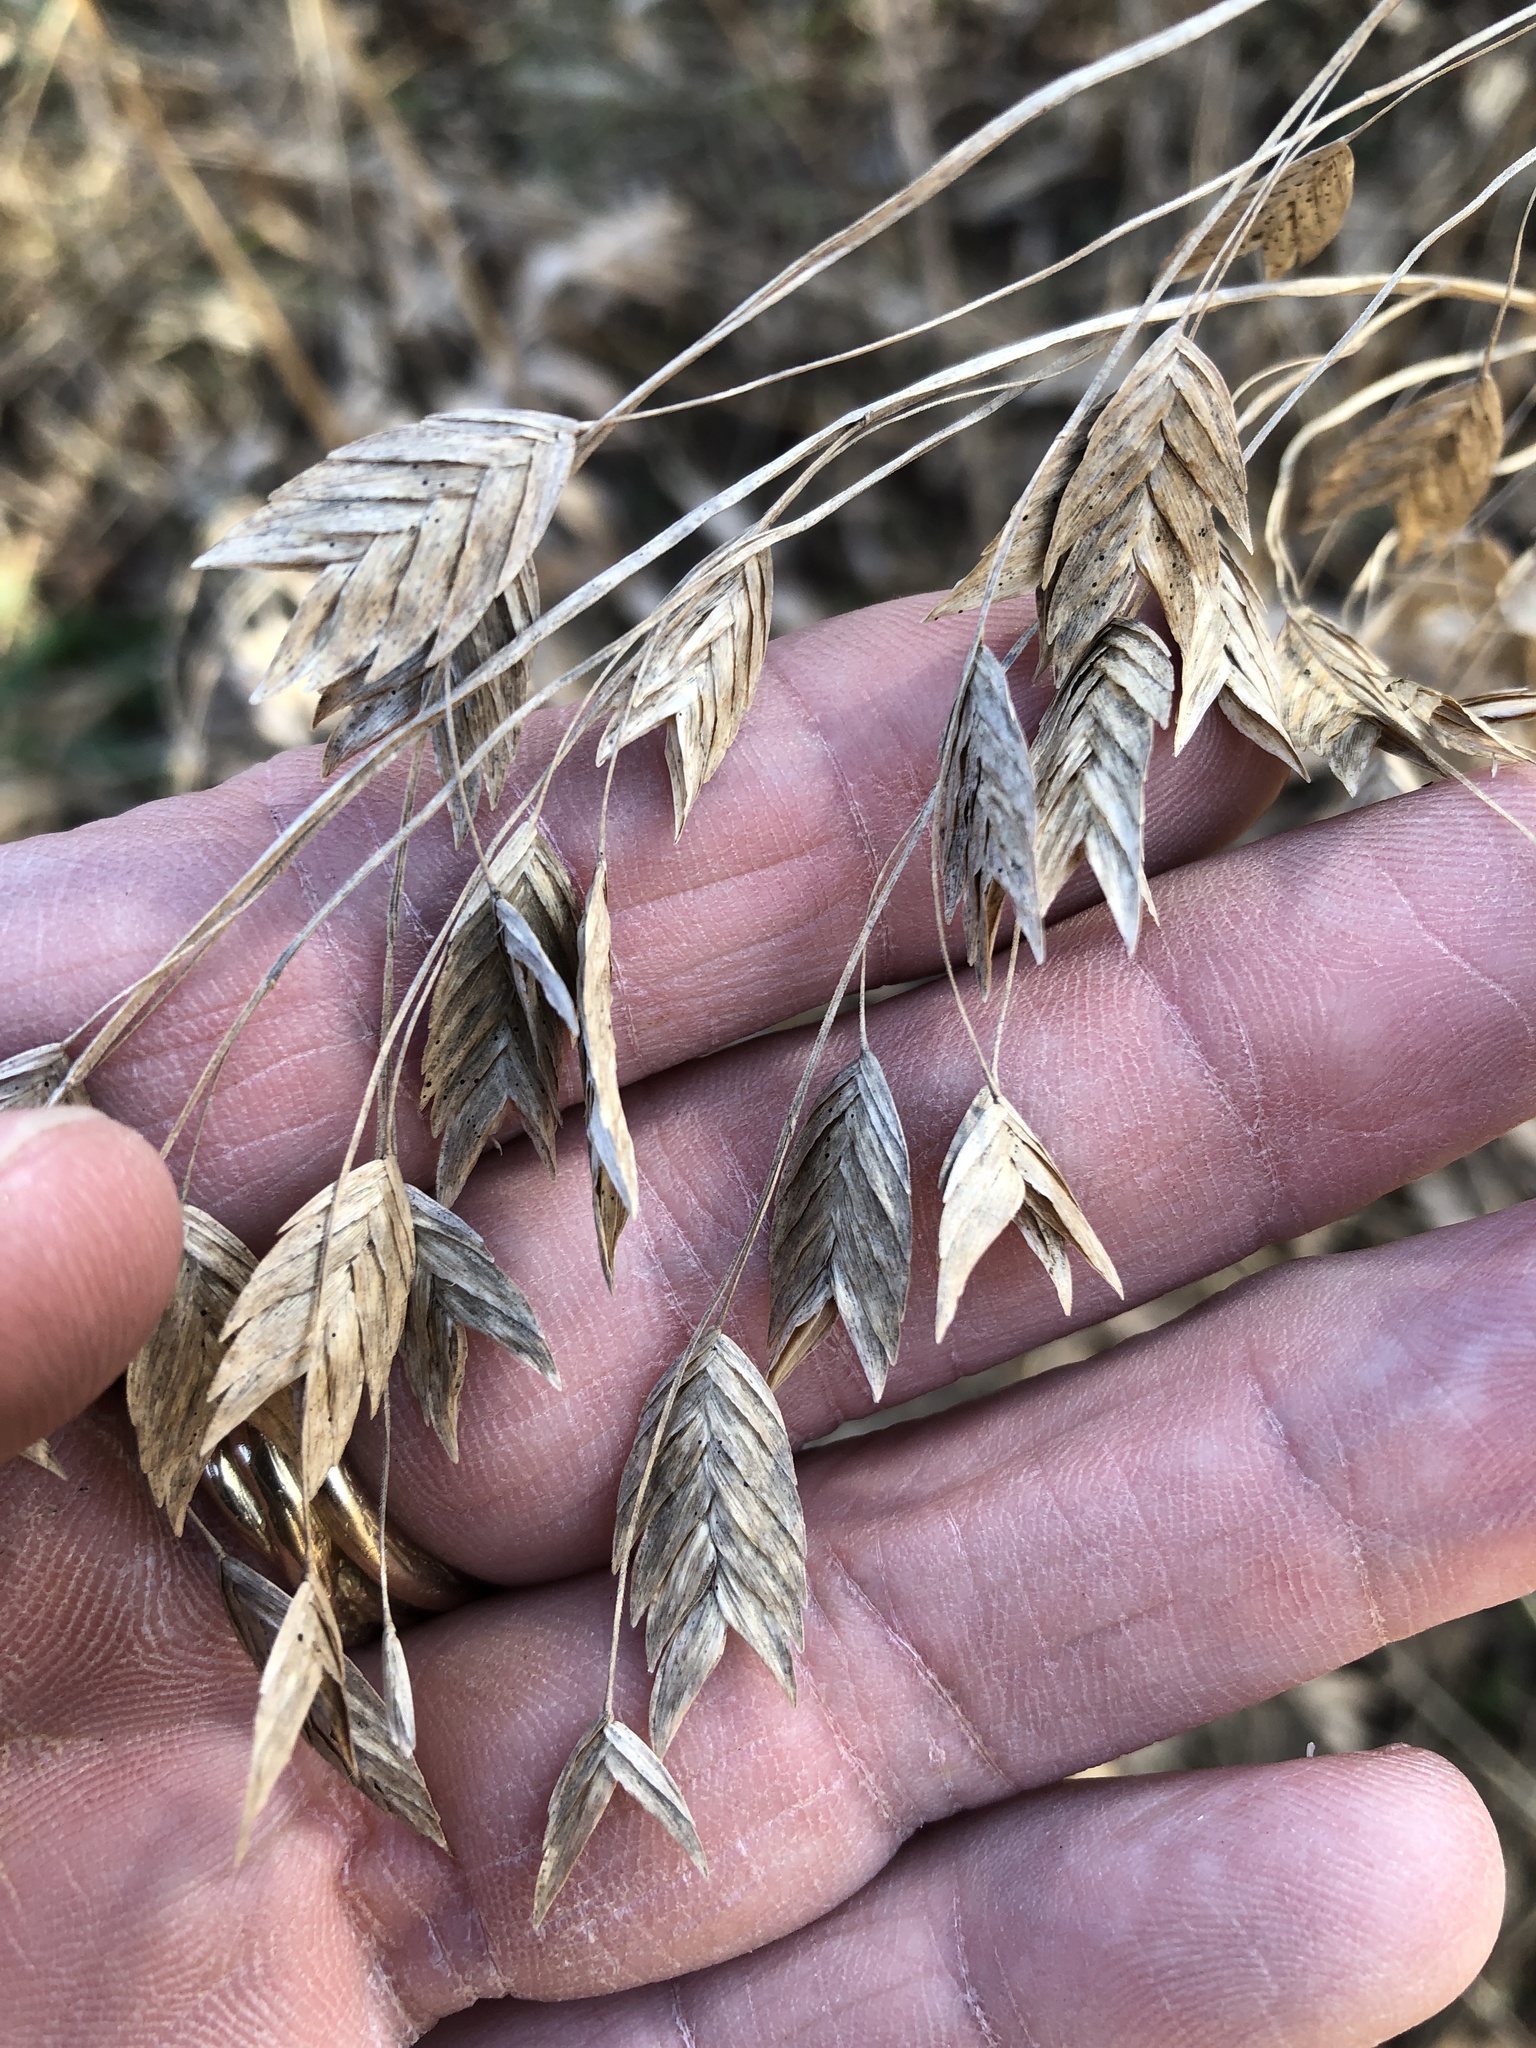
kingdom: Plantae
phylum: Tracheophyta
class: Liliopsida
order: Poales
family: Poaceae
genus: Chasmanthium
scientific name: Chasmanthium latifolium
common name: Broad-leaved chasmanthium
